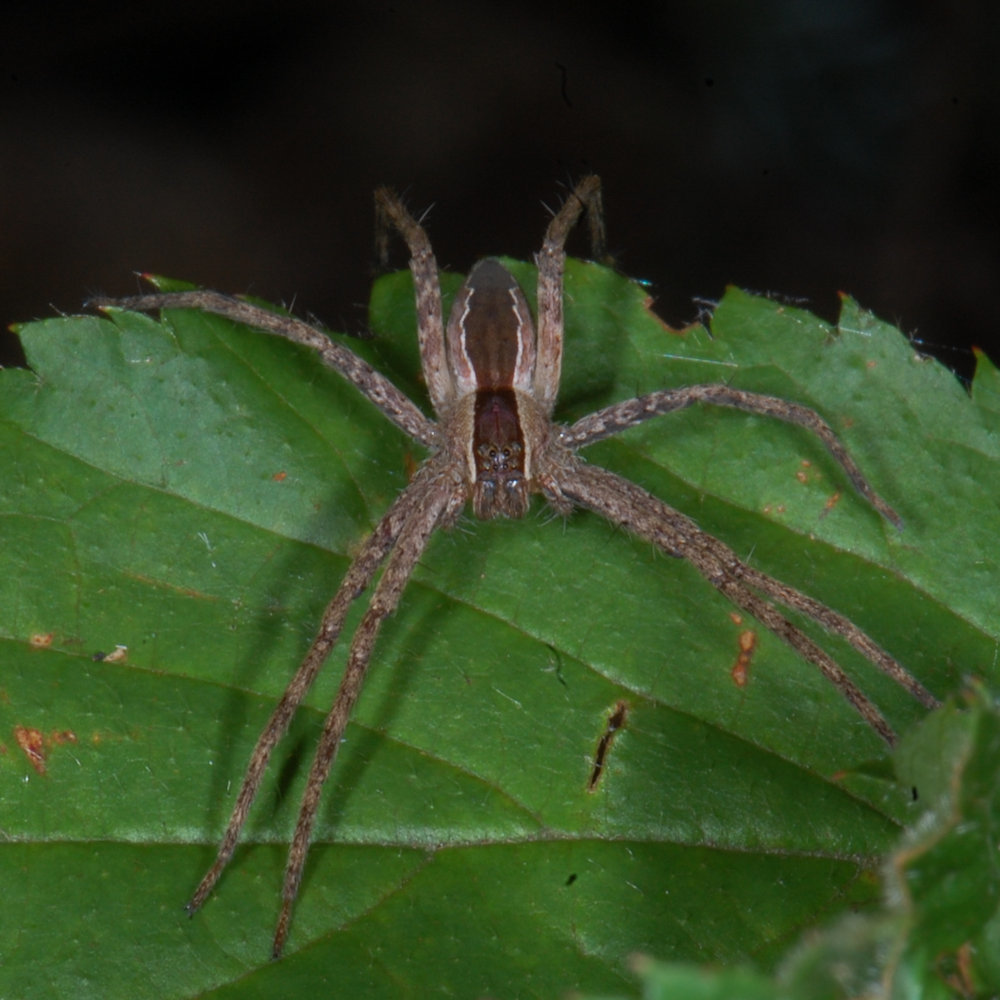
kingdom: Animalia
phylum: Arthropoda
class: Arachnida
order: Araneae
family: Pisauridae
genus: Pisaurina
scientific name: Pisaurina mira
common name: American nursery web spider
